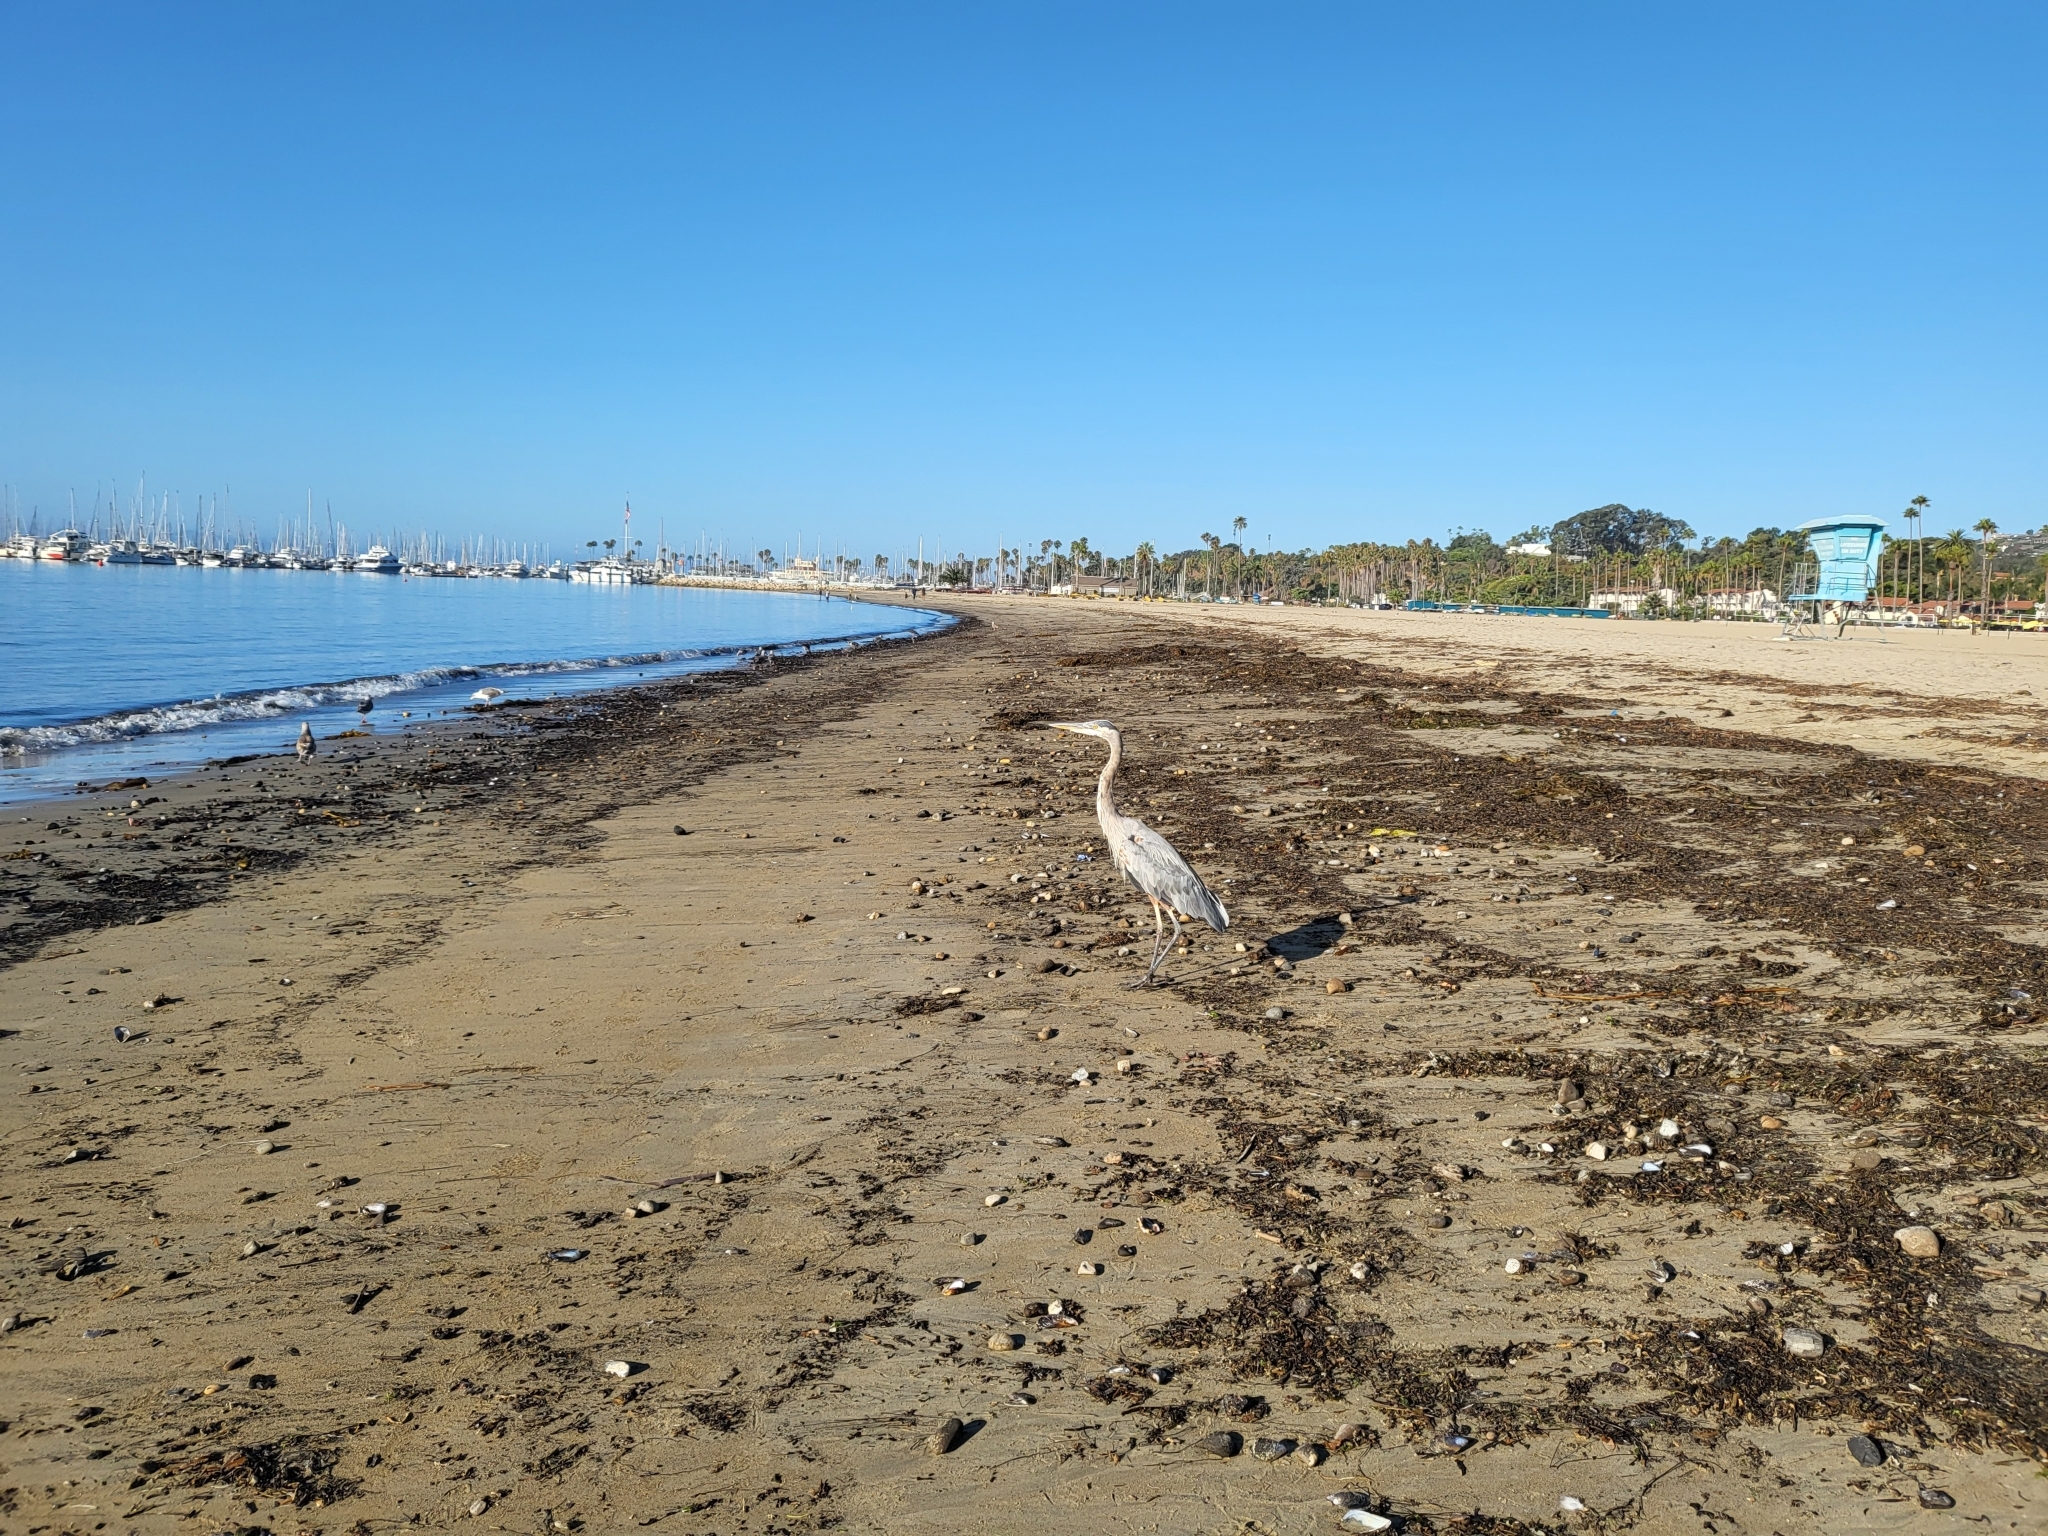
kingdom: Animalia
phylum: Chordata
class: Aves
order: Pelecaniformes
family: Ardeidae
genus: Ardea
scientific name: Ardea herodias
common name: Great blue heron
